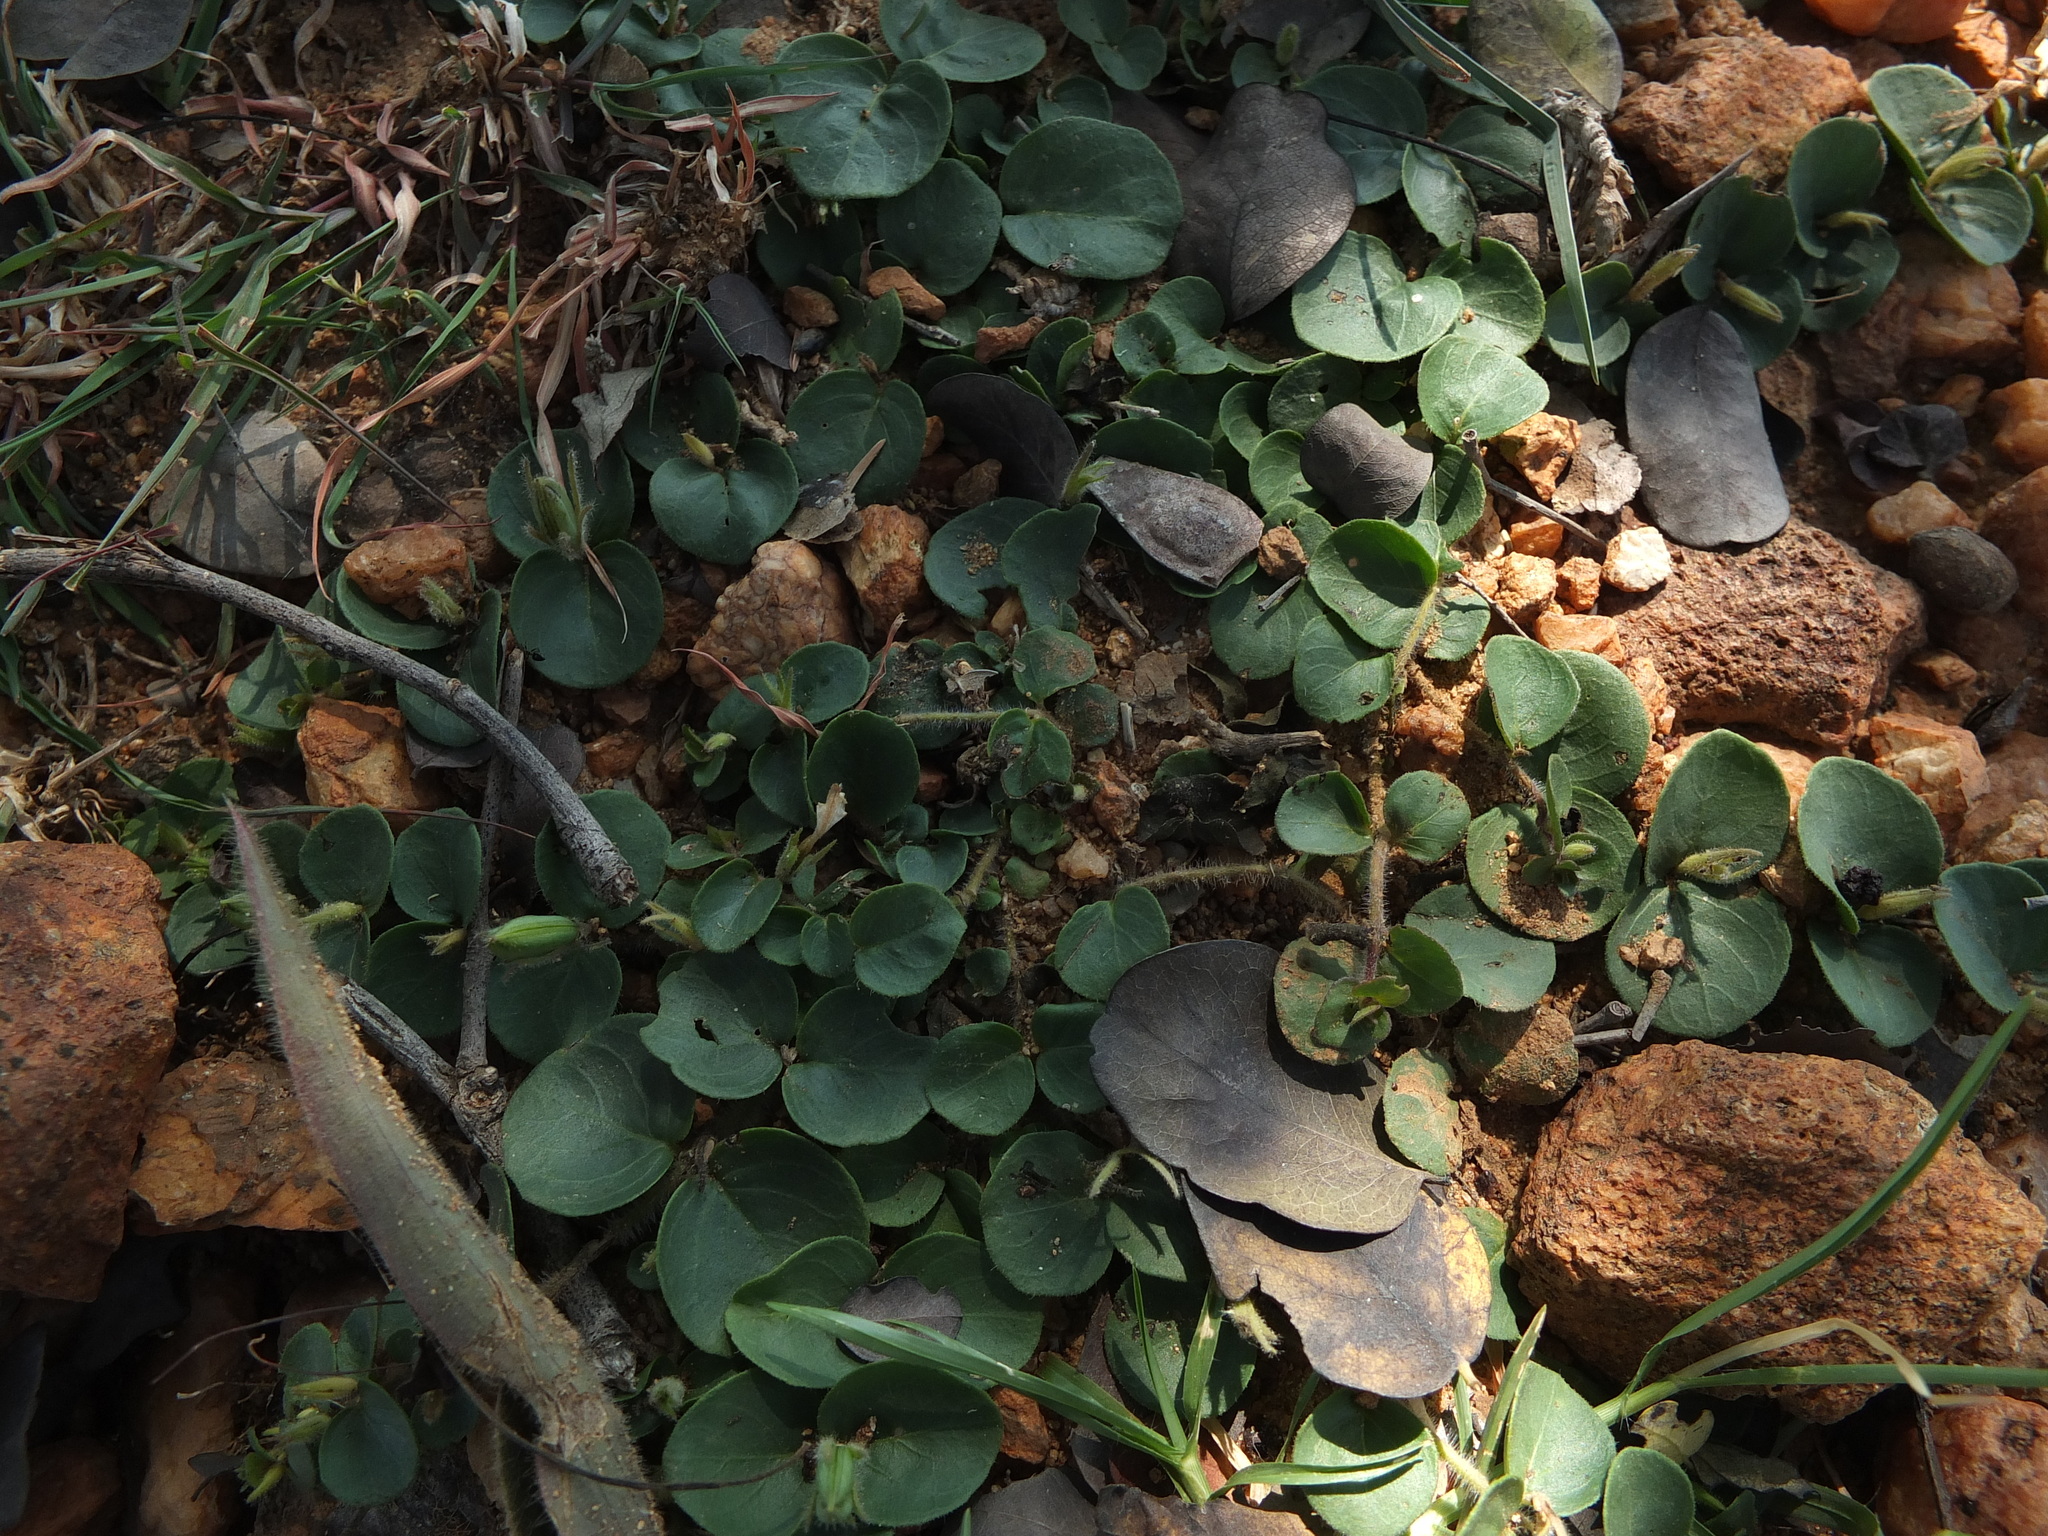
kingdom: Plantae
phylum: Tracheophyta
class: Magnoliopsida
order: Lamiales
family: Acanthaceae
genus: Andrographis
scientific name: Andrographis serpyllifolia
